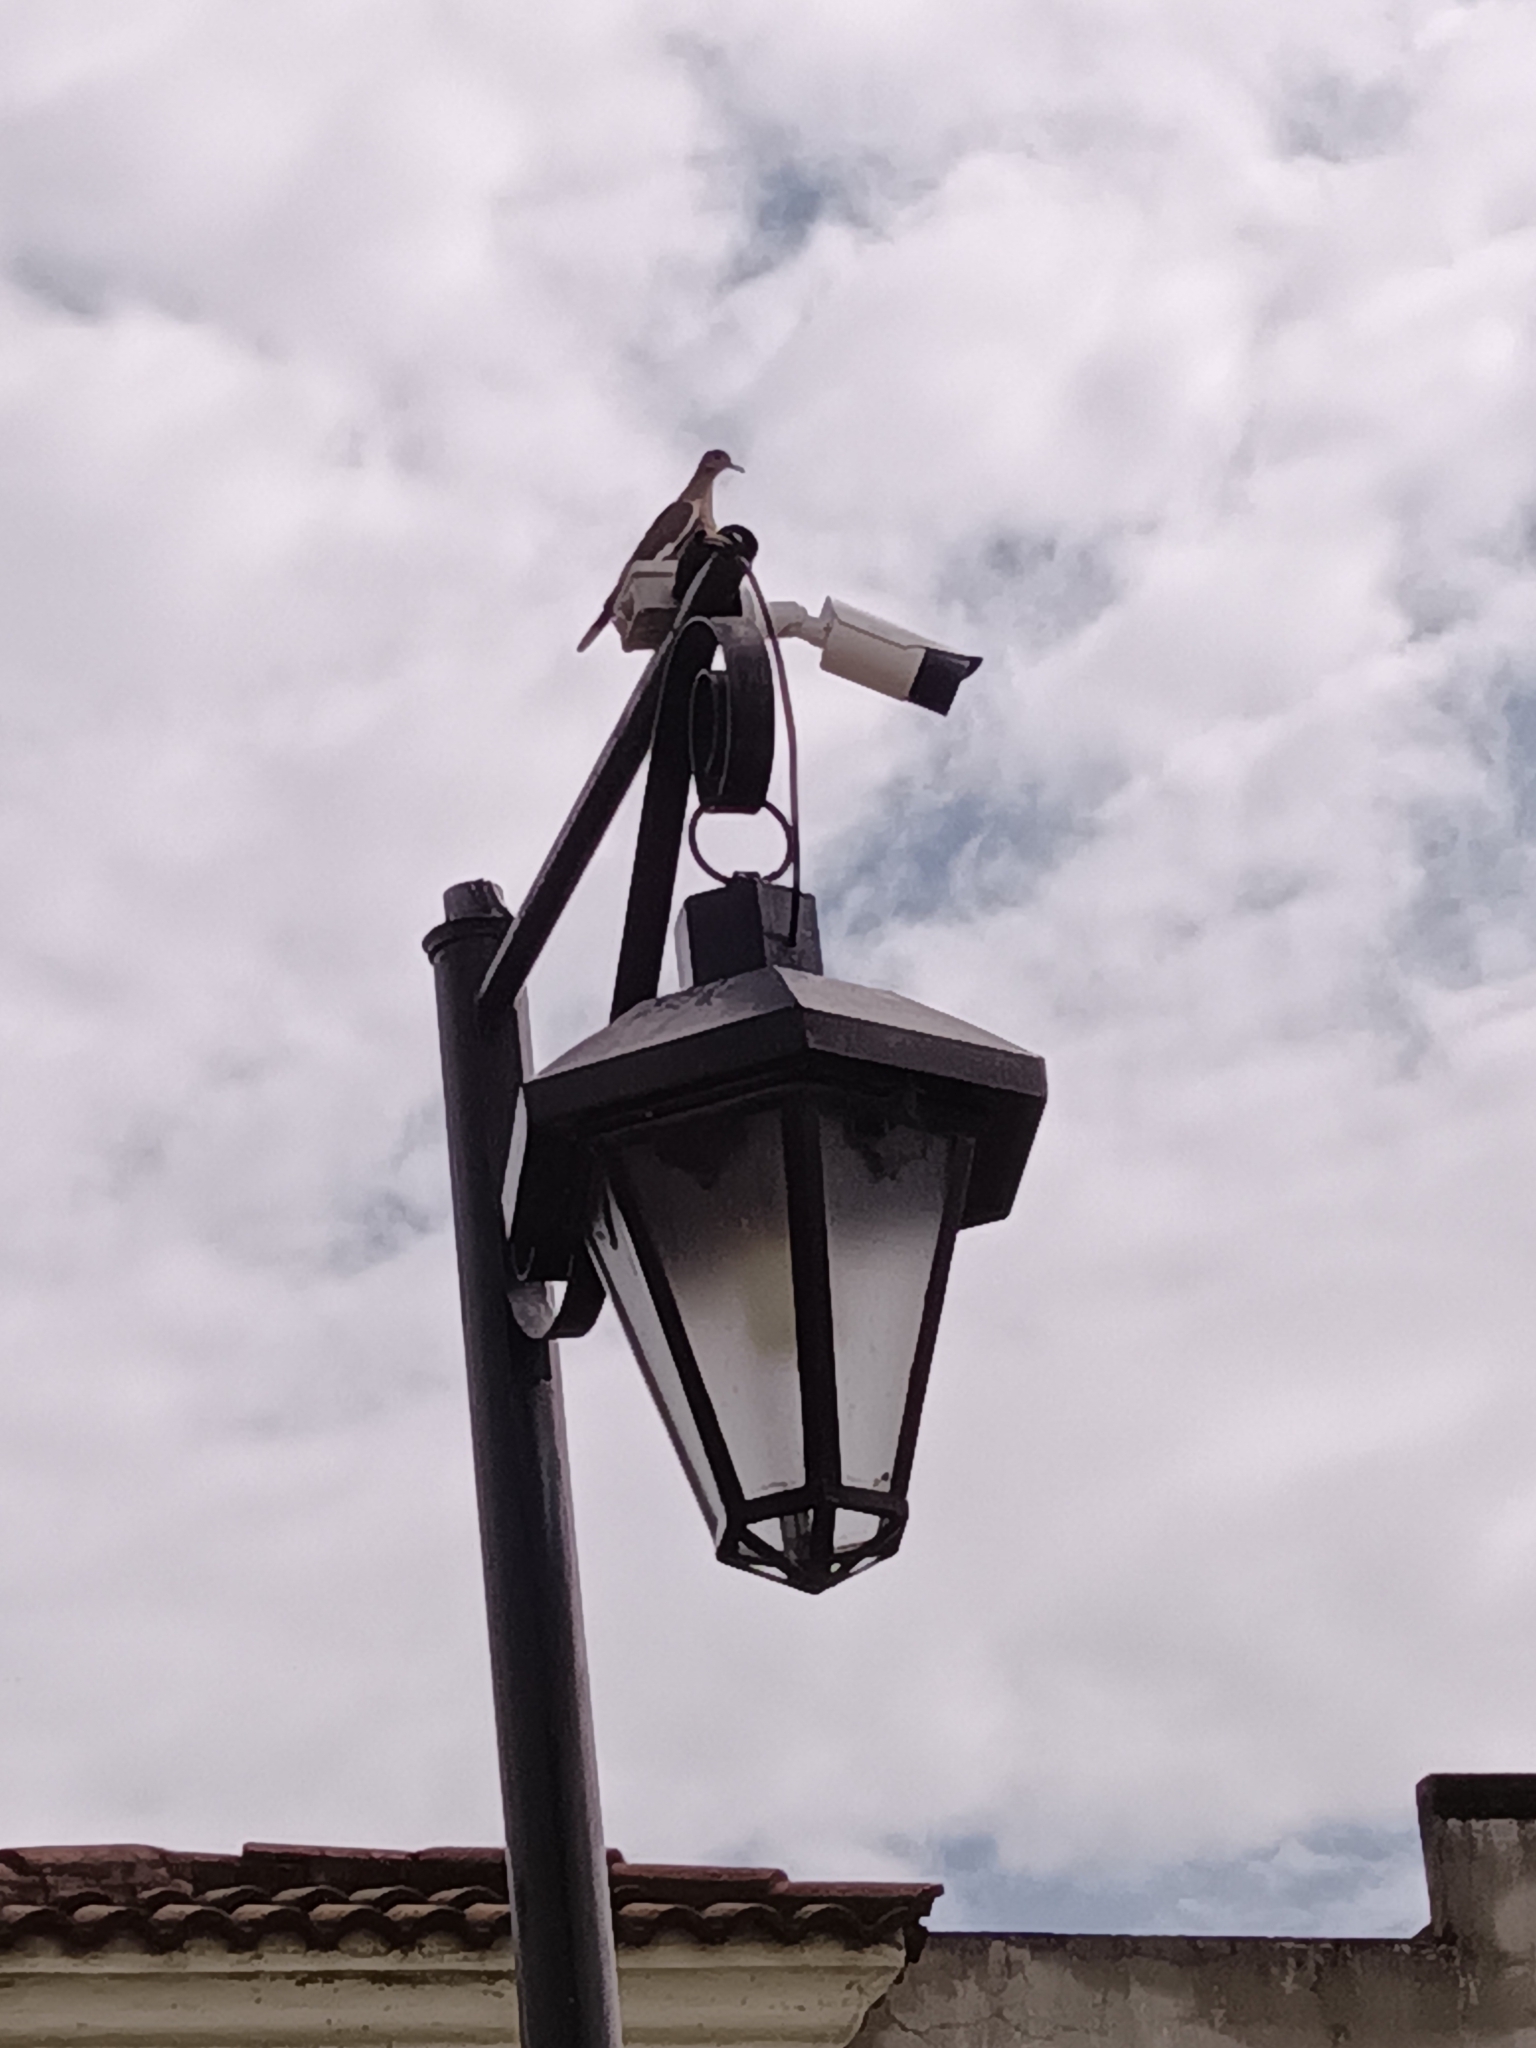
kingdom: Animalia
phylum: Chordata
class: Aves
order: Columbiformes
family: Columbidae
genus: Zenaida
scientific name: Zenaida asiatica
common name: White-winged dove
